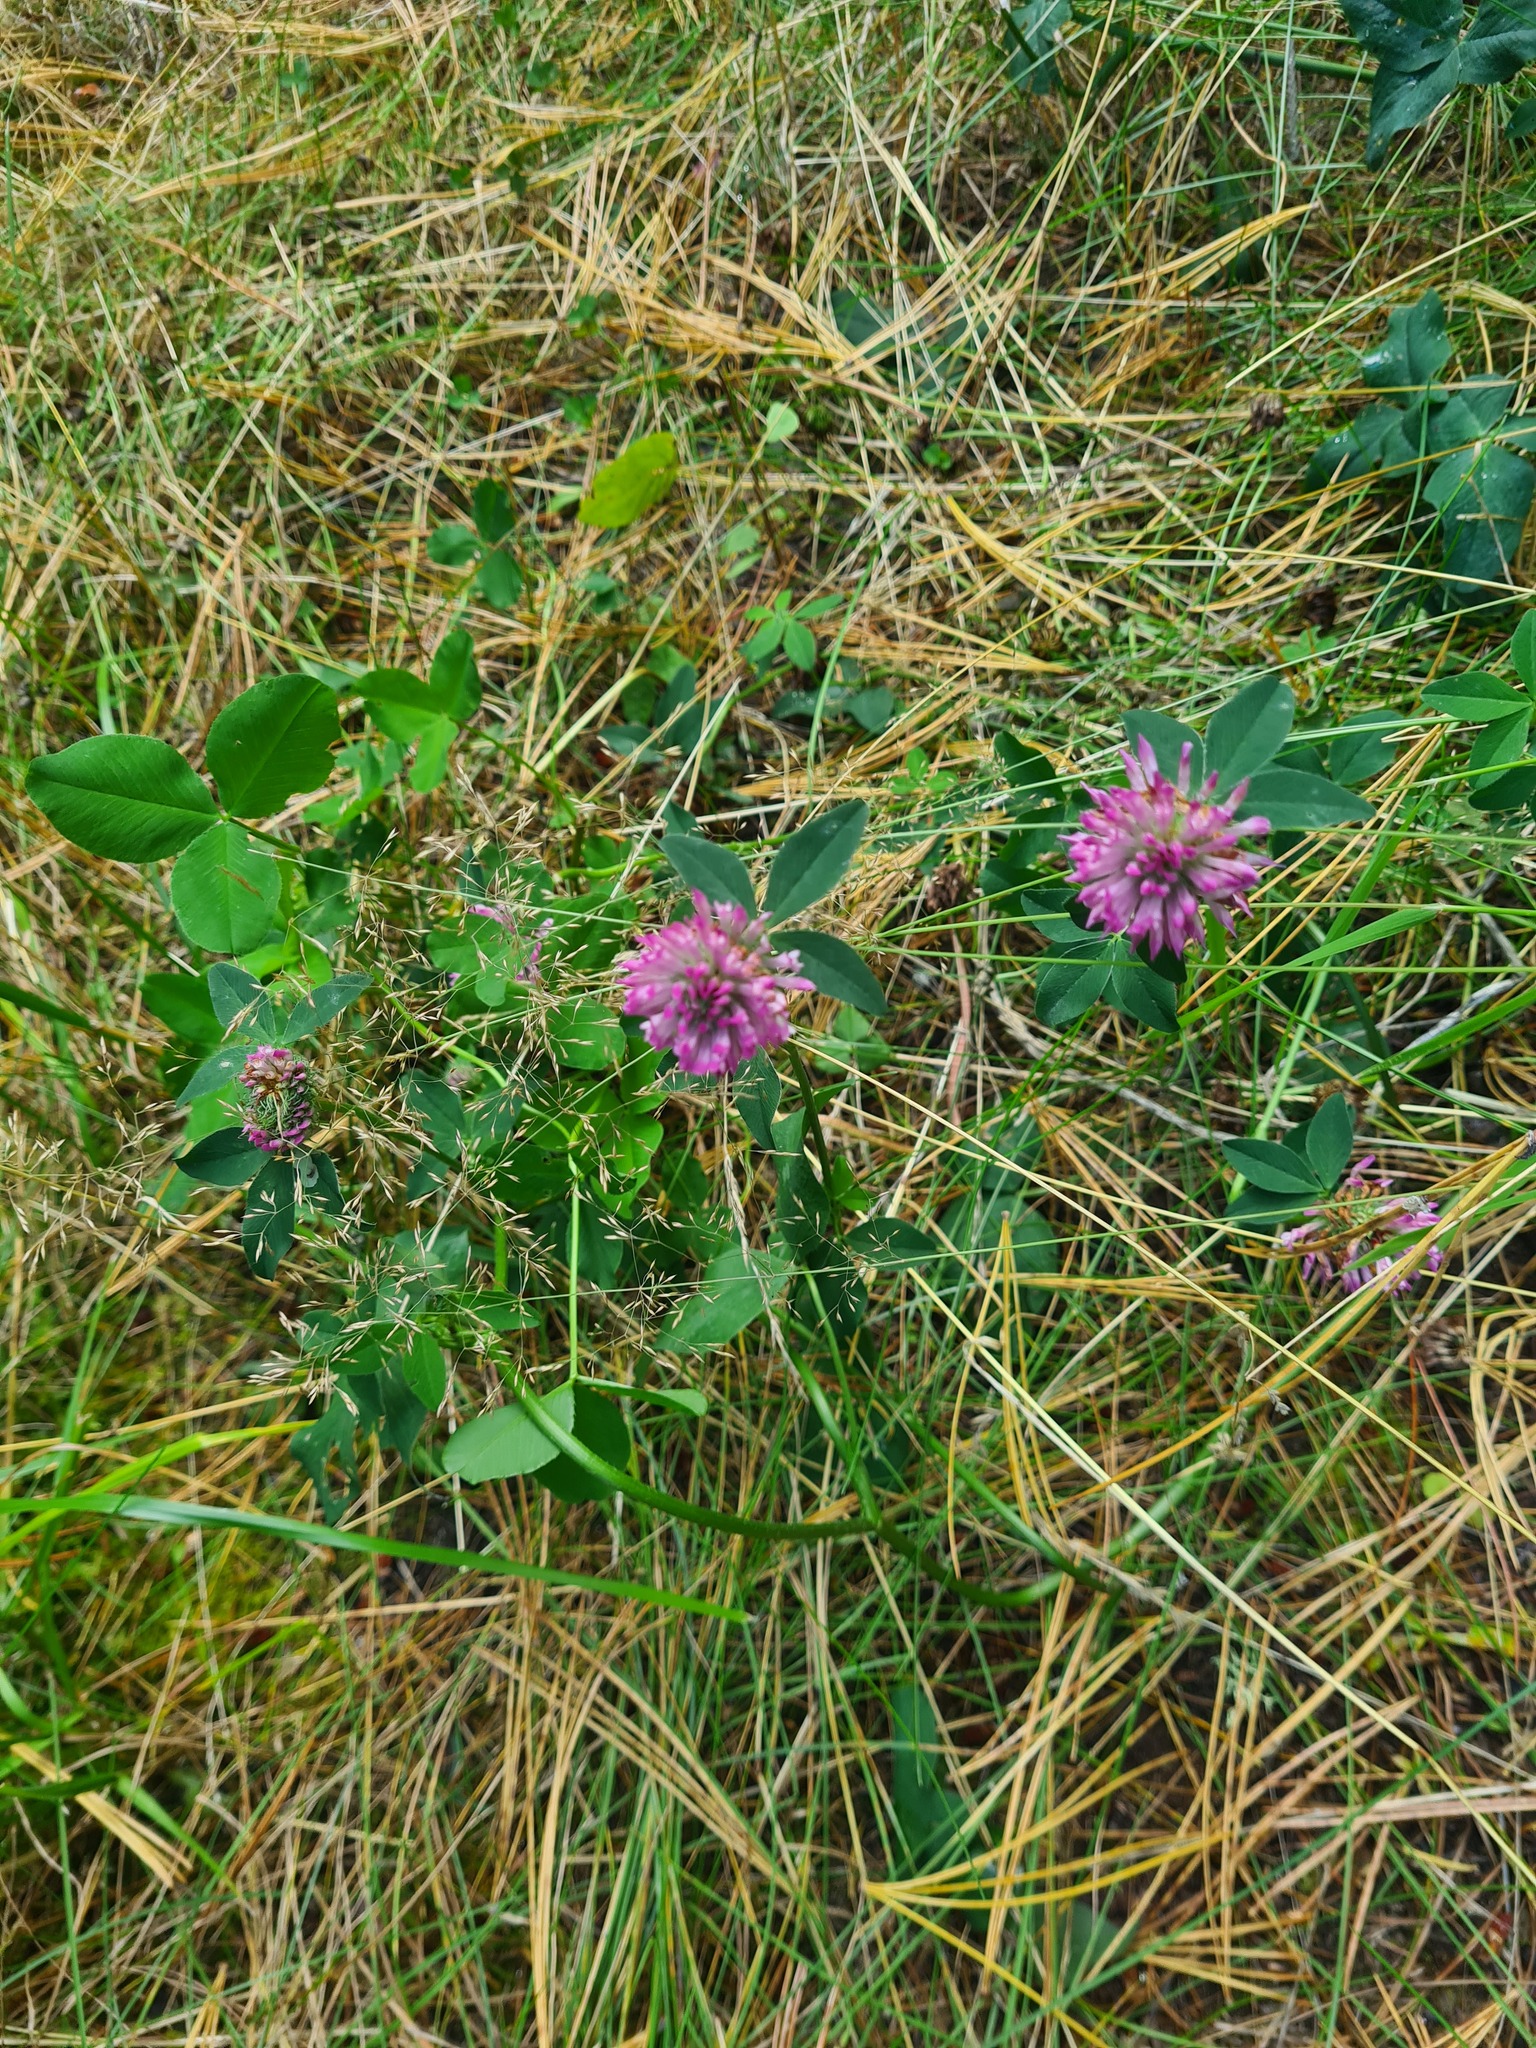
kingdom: Plantae
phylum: Tracheophyta
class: Magnoliopsida
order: Fabales
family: Fabaceae
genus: Trifolium
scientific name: Trifolium medium
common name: Zigzag clover
